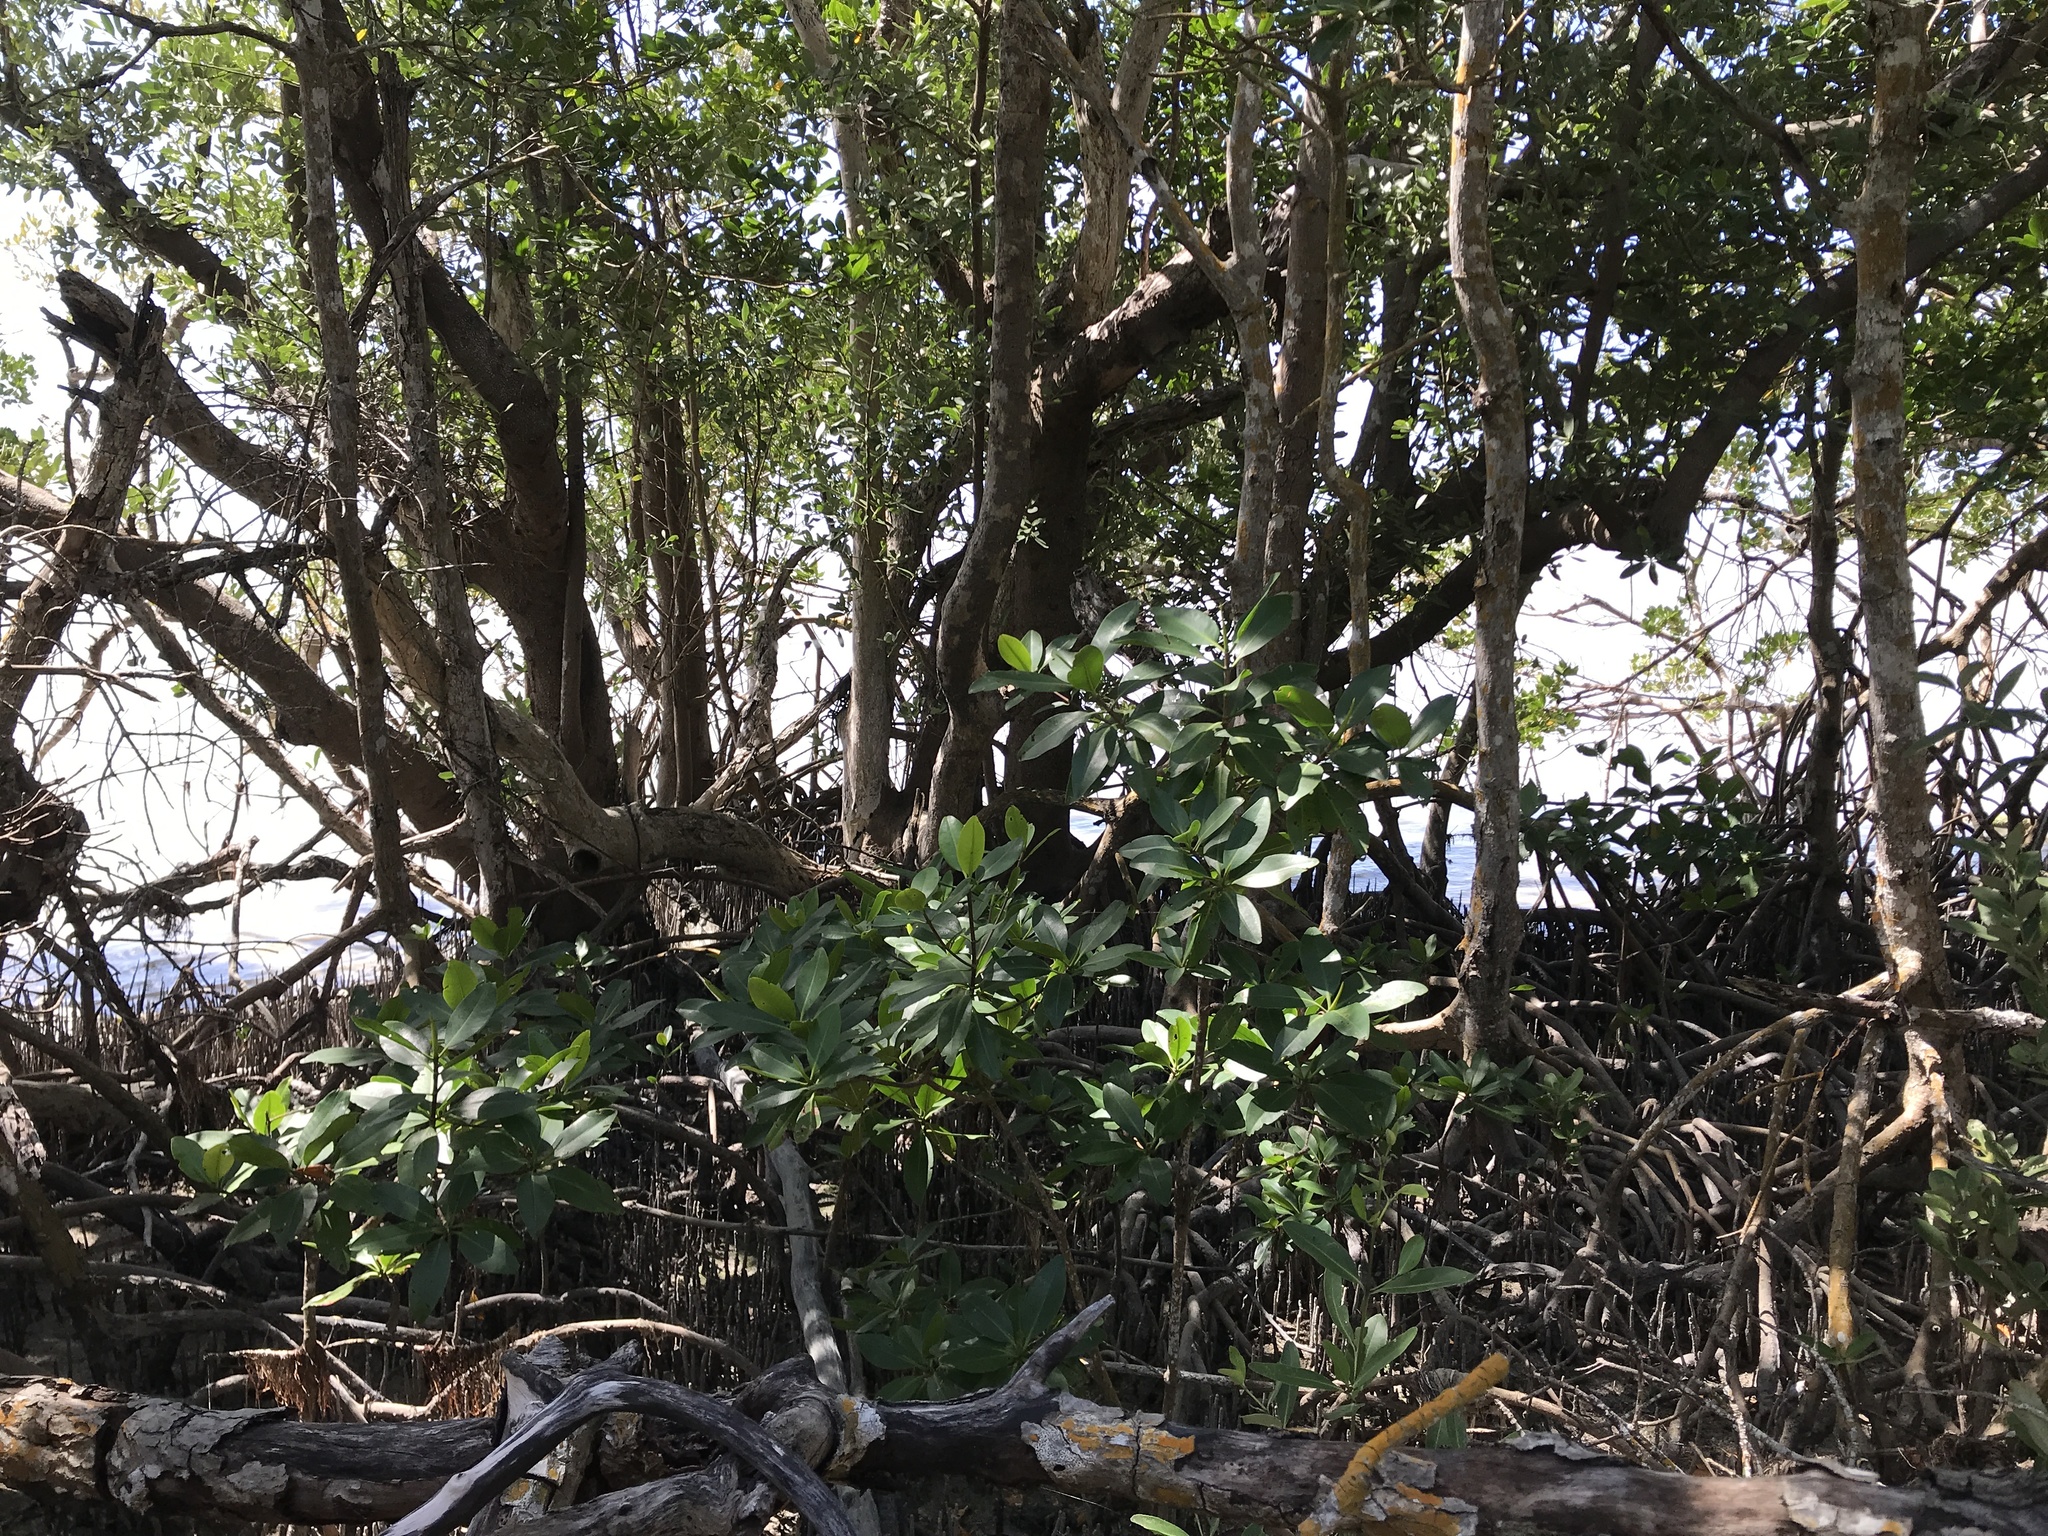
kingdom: Plantae
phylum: Tracheophyta
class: Magnoliopsida
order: Malpighiales
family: Rhizophoraceae
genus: Rhizophora
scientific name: Rhizophora mangle
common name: Red mangrove
